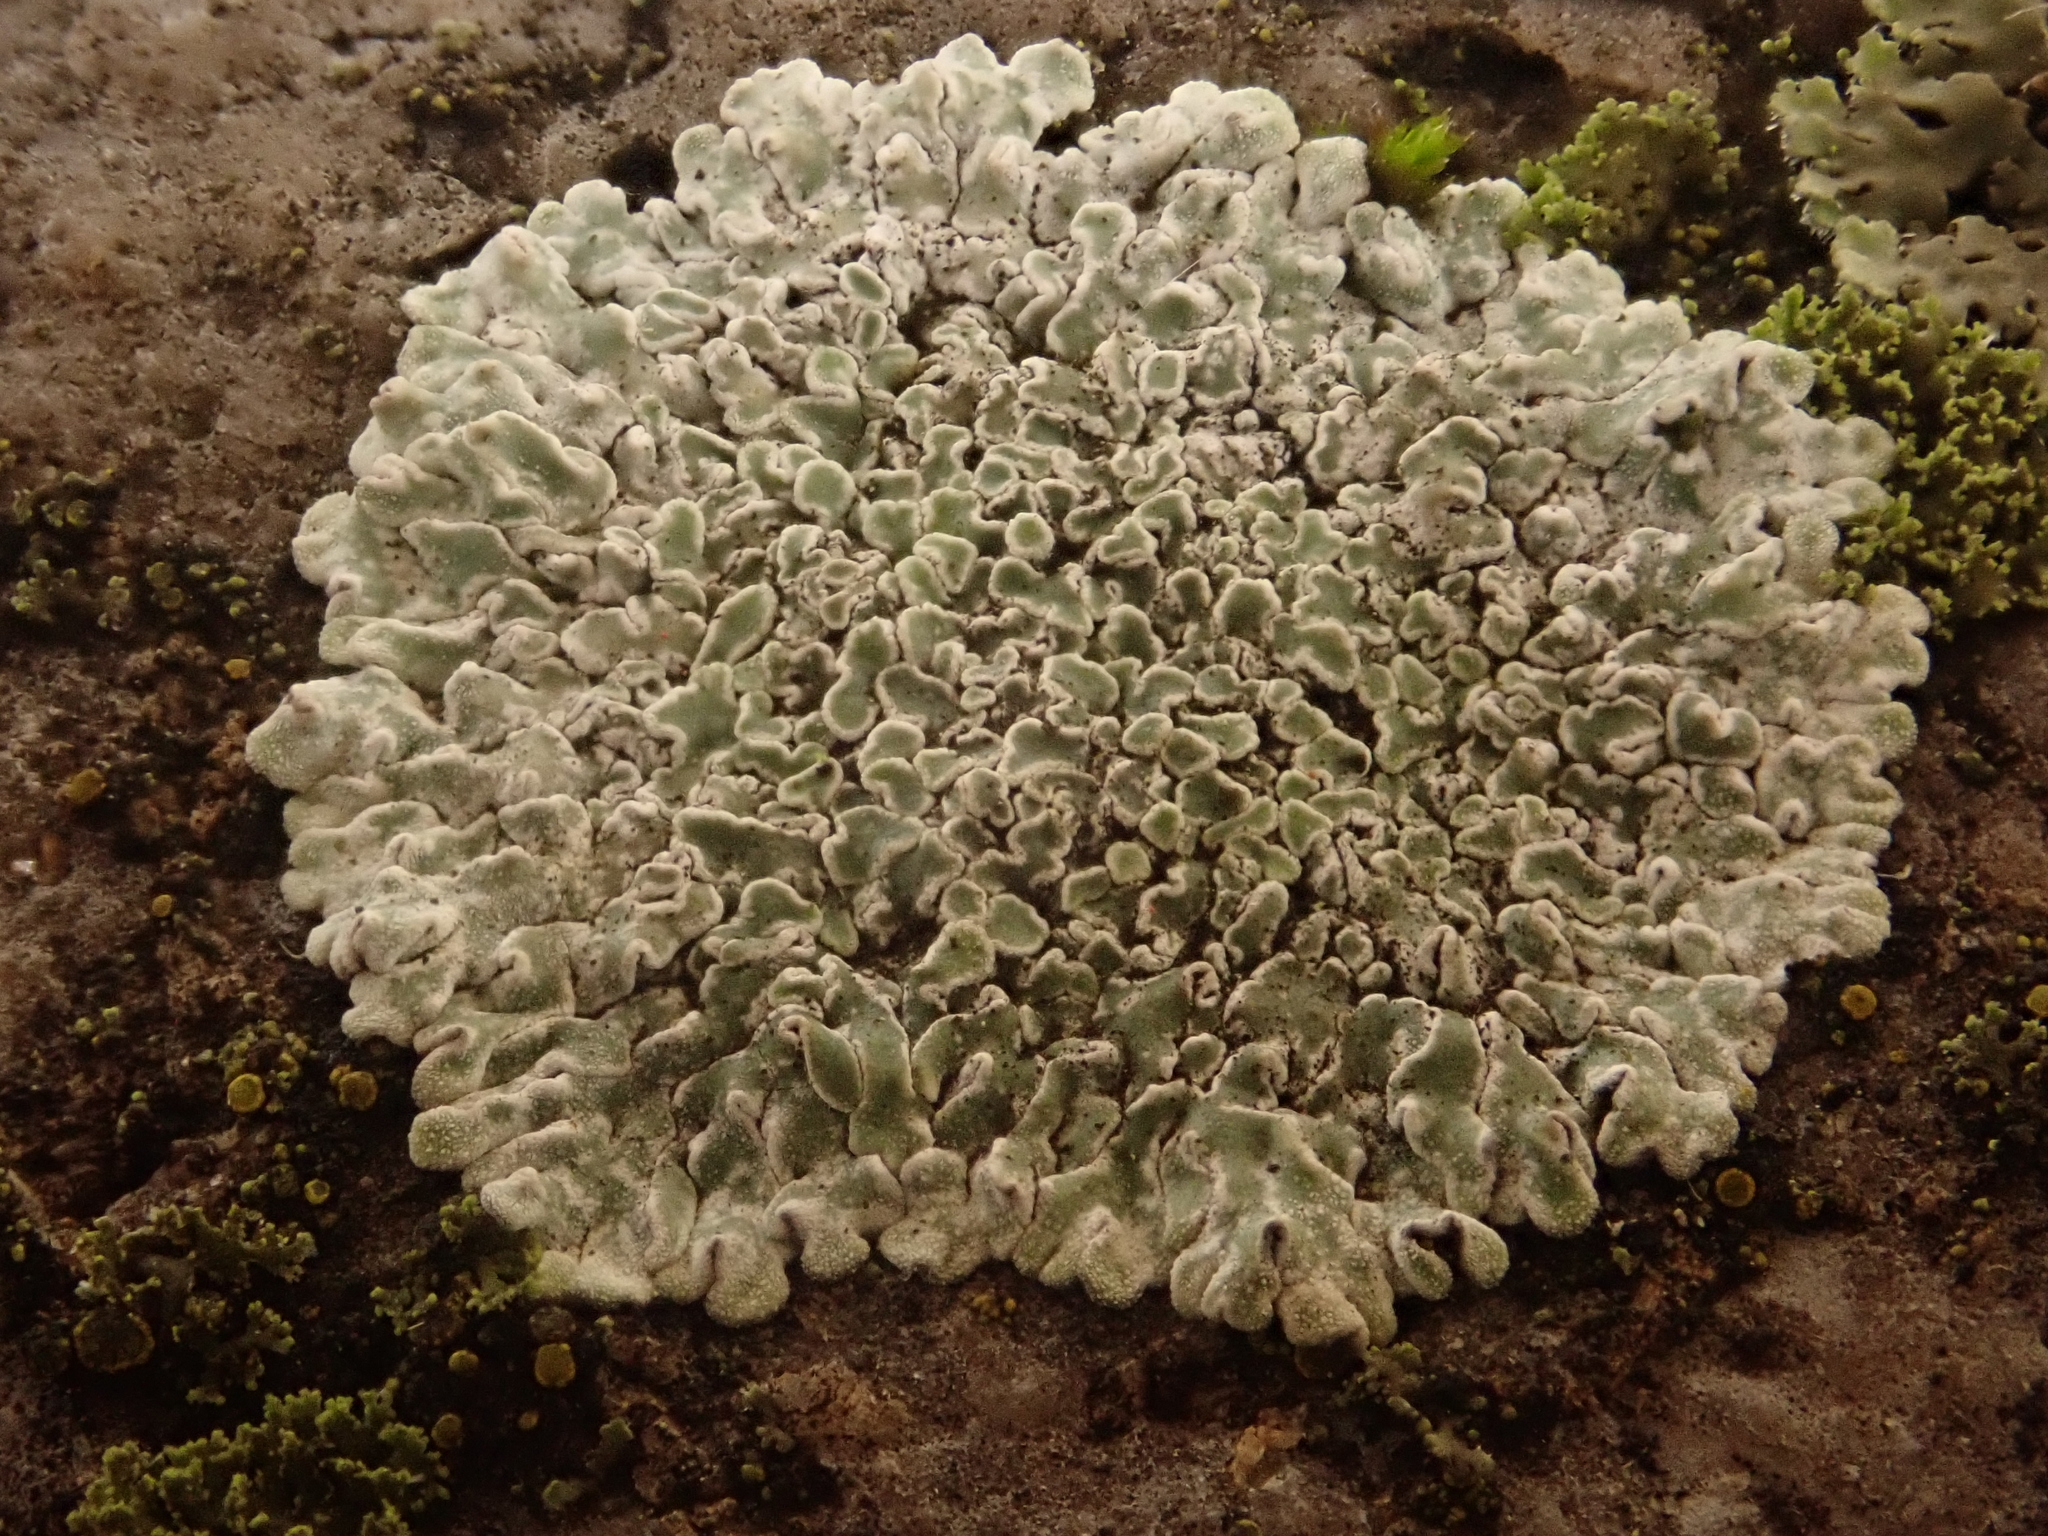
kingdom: Fungi
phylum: Ascomycota
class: Lecanoromycetes
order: Lecanorales
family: Lecanoraceae
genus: Protoparmeliopsis
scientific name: Protoparmeliopsis muralis
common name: Stonewall rim lichen
